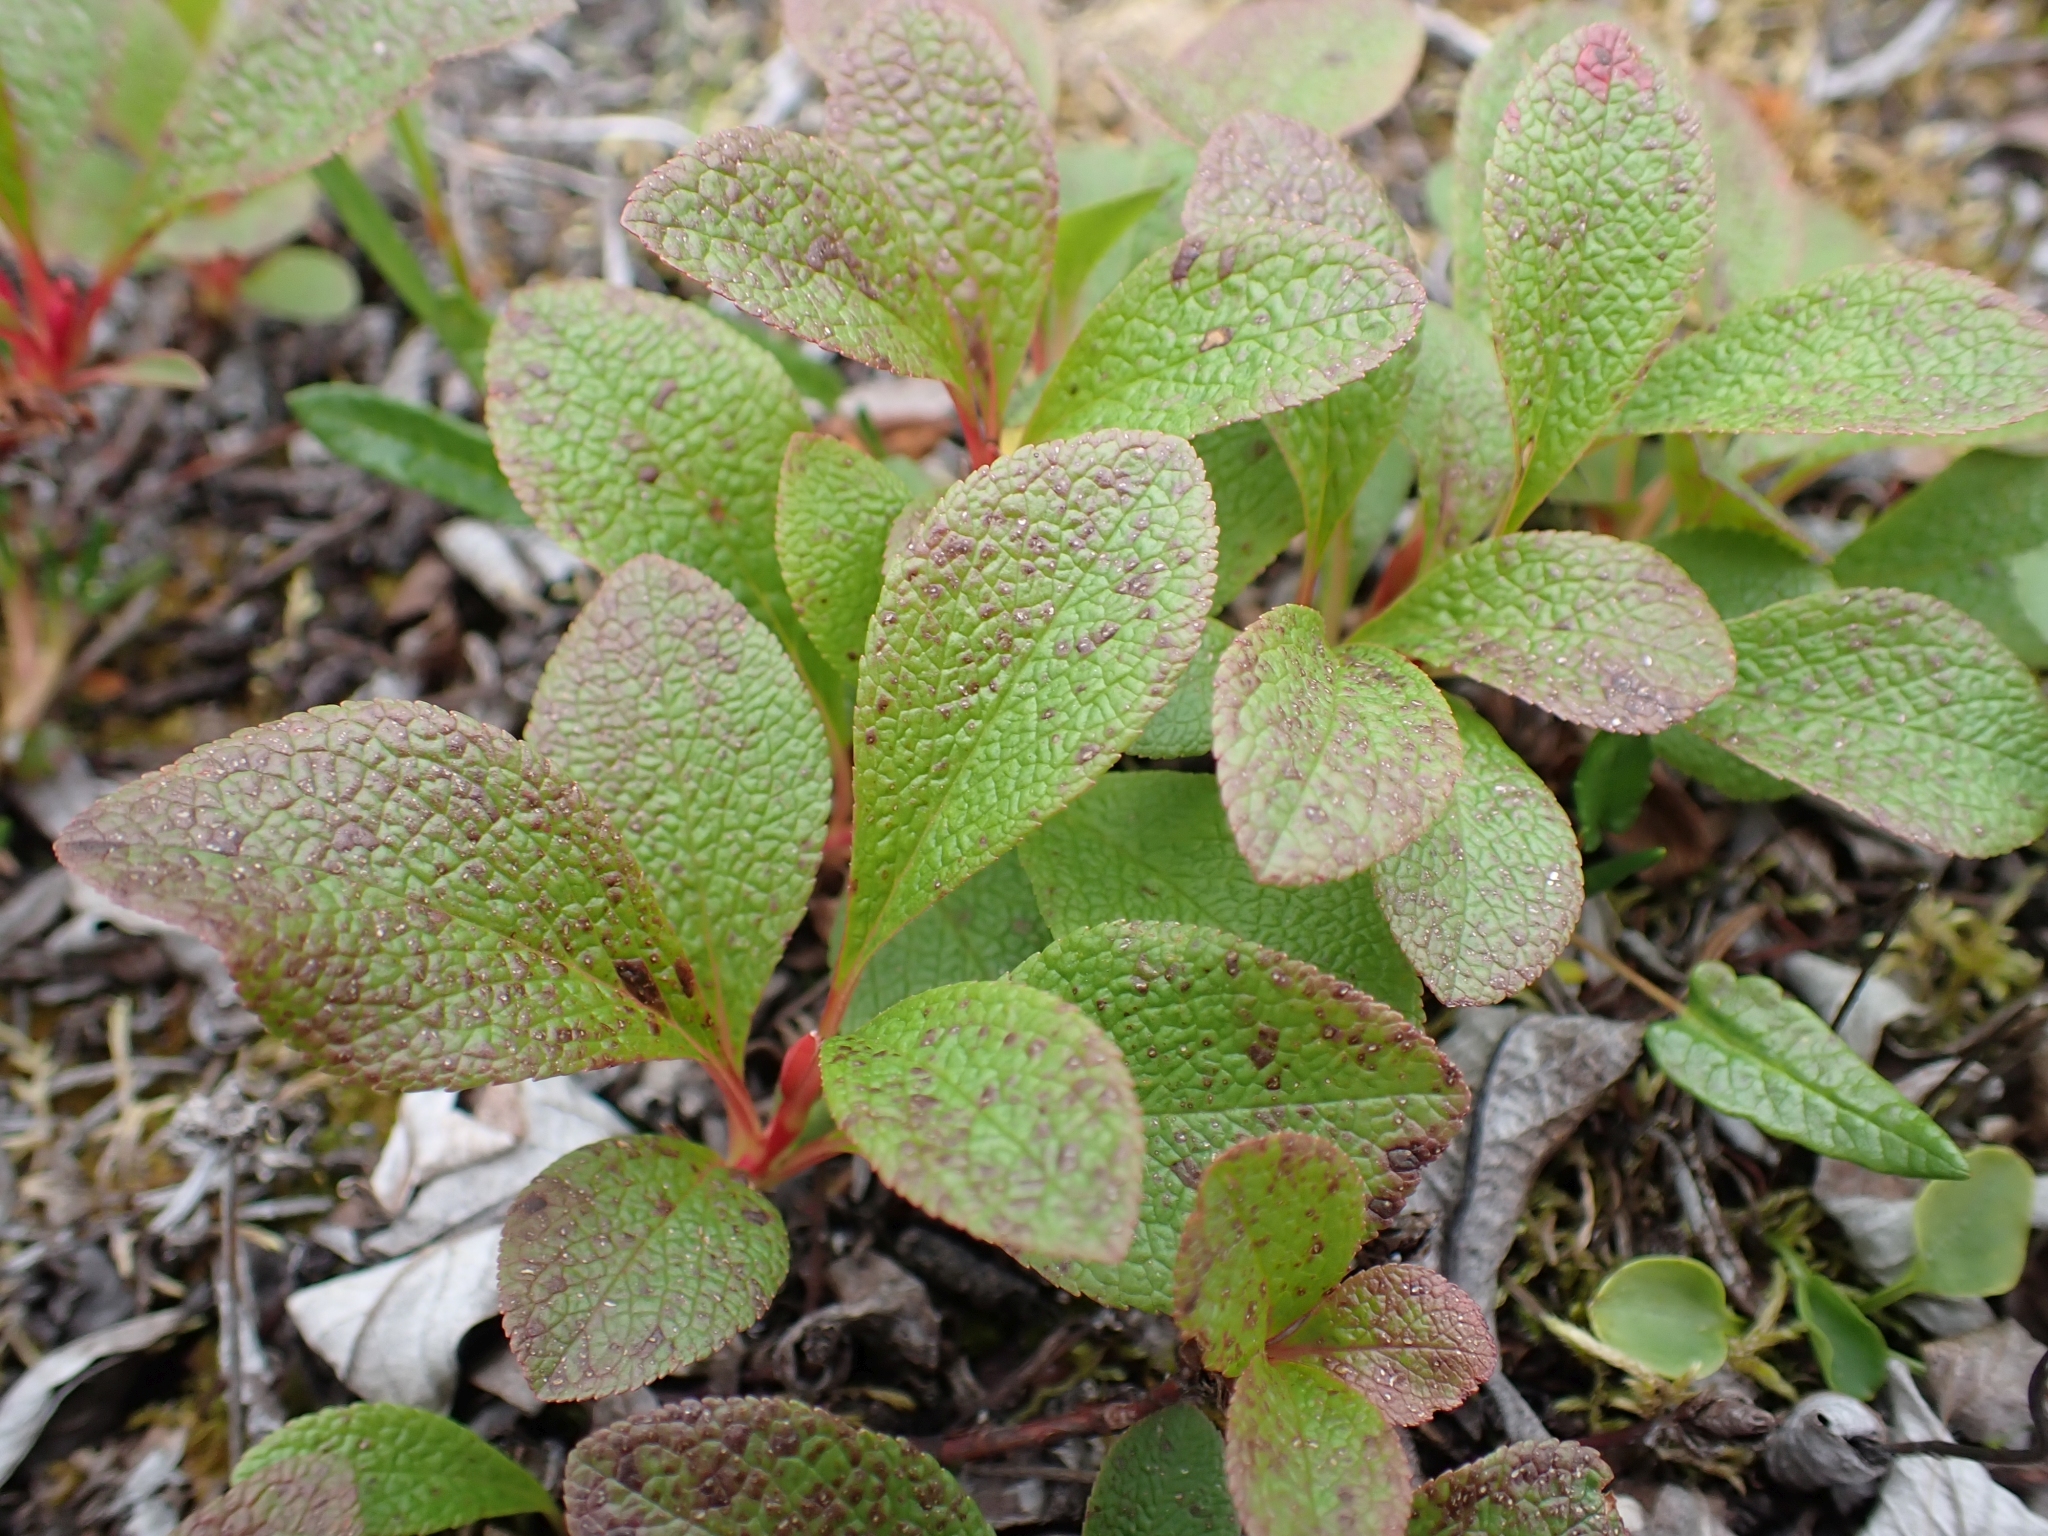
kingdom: Plantae
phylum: Tracheophyta
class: Magnoliopsida
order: Ericales
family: Ericaceae
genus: Arctostaphylos
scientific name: Arctostaphylos rubra
